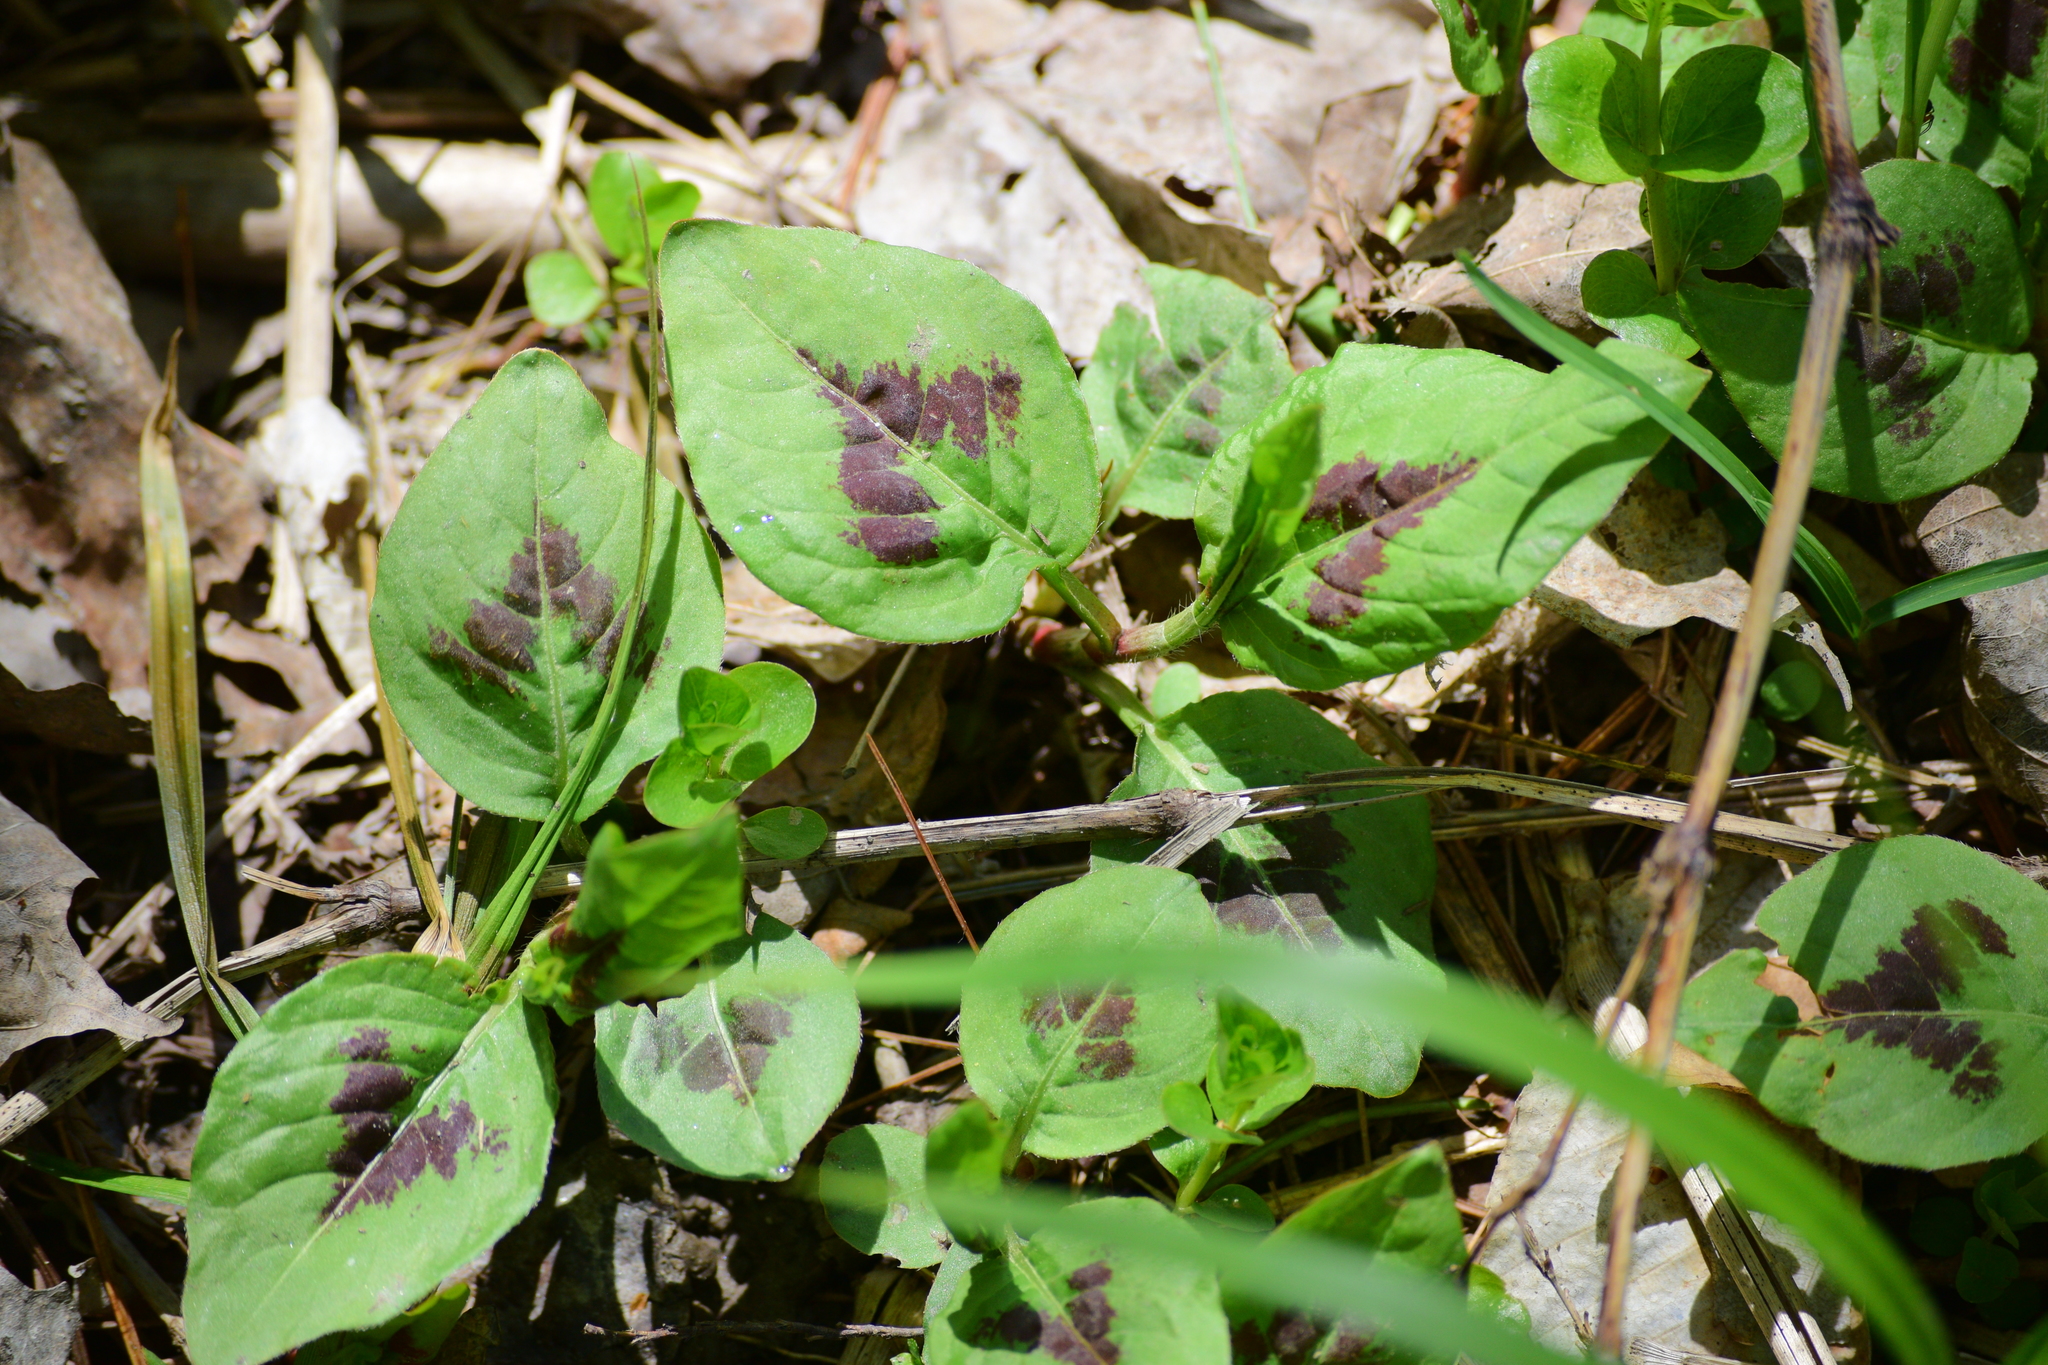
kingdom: Plantae
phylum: Tracheophyta
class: Magnoliopsida
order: Caryophyllales
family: Polygonaceae
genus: Persicaria
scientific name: Persicaria virginiana
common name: Jumpseed
